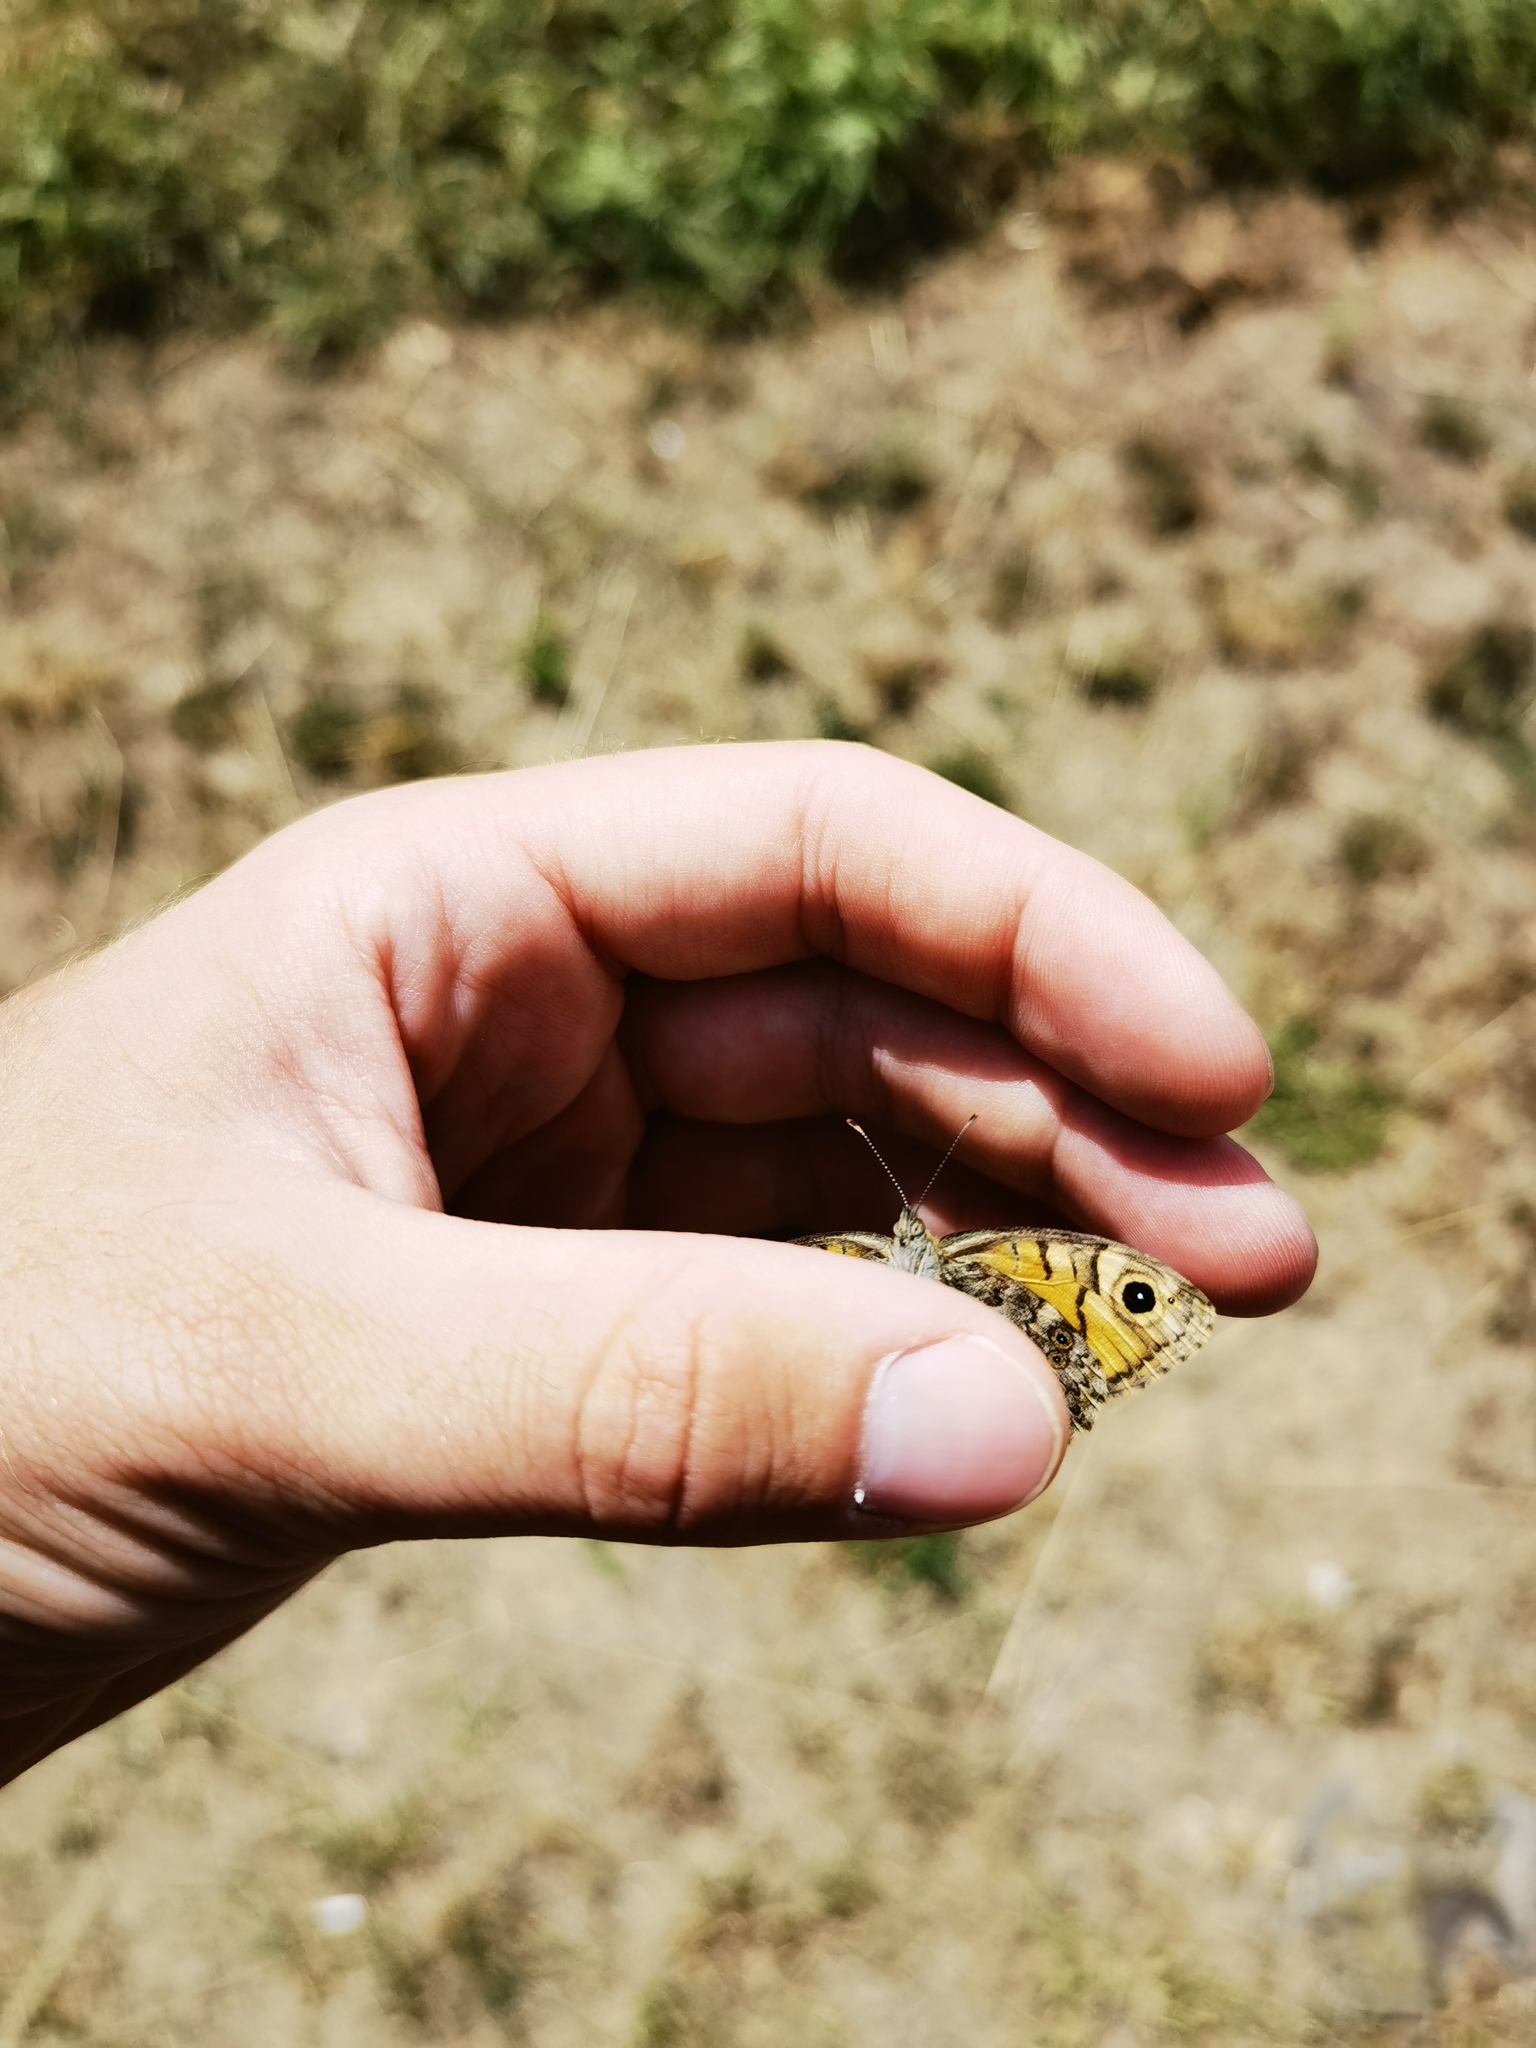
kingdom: Animalia
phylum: Arthropoda
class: Insecta
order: Lepidoptera
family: Nymphalidae
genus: Pararge
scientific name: Pararge Lasiommata megera
